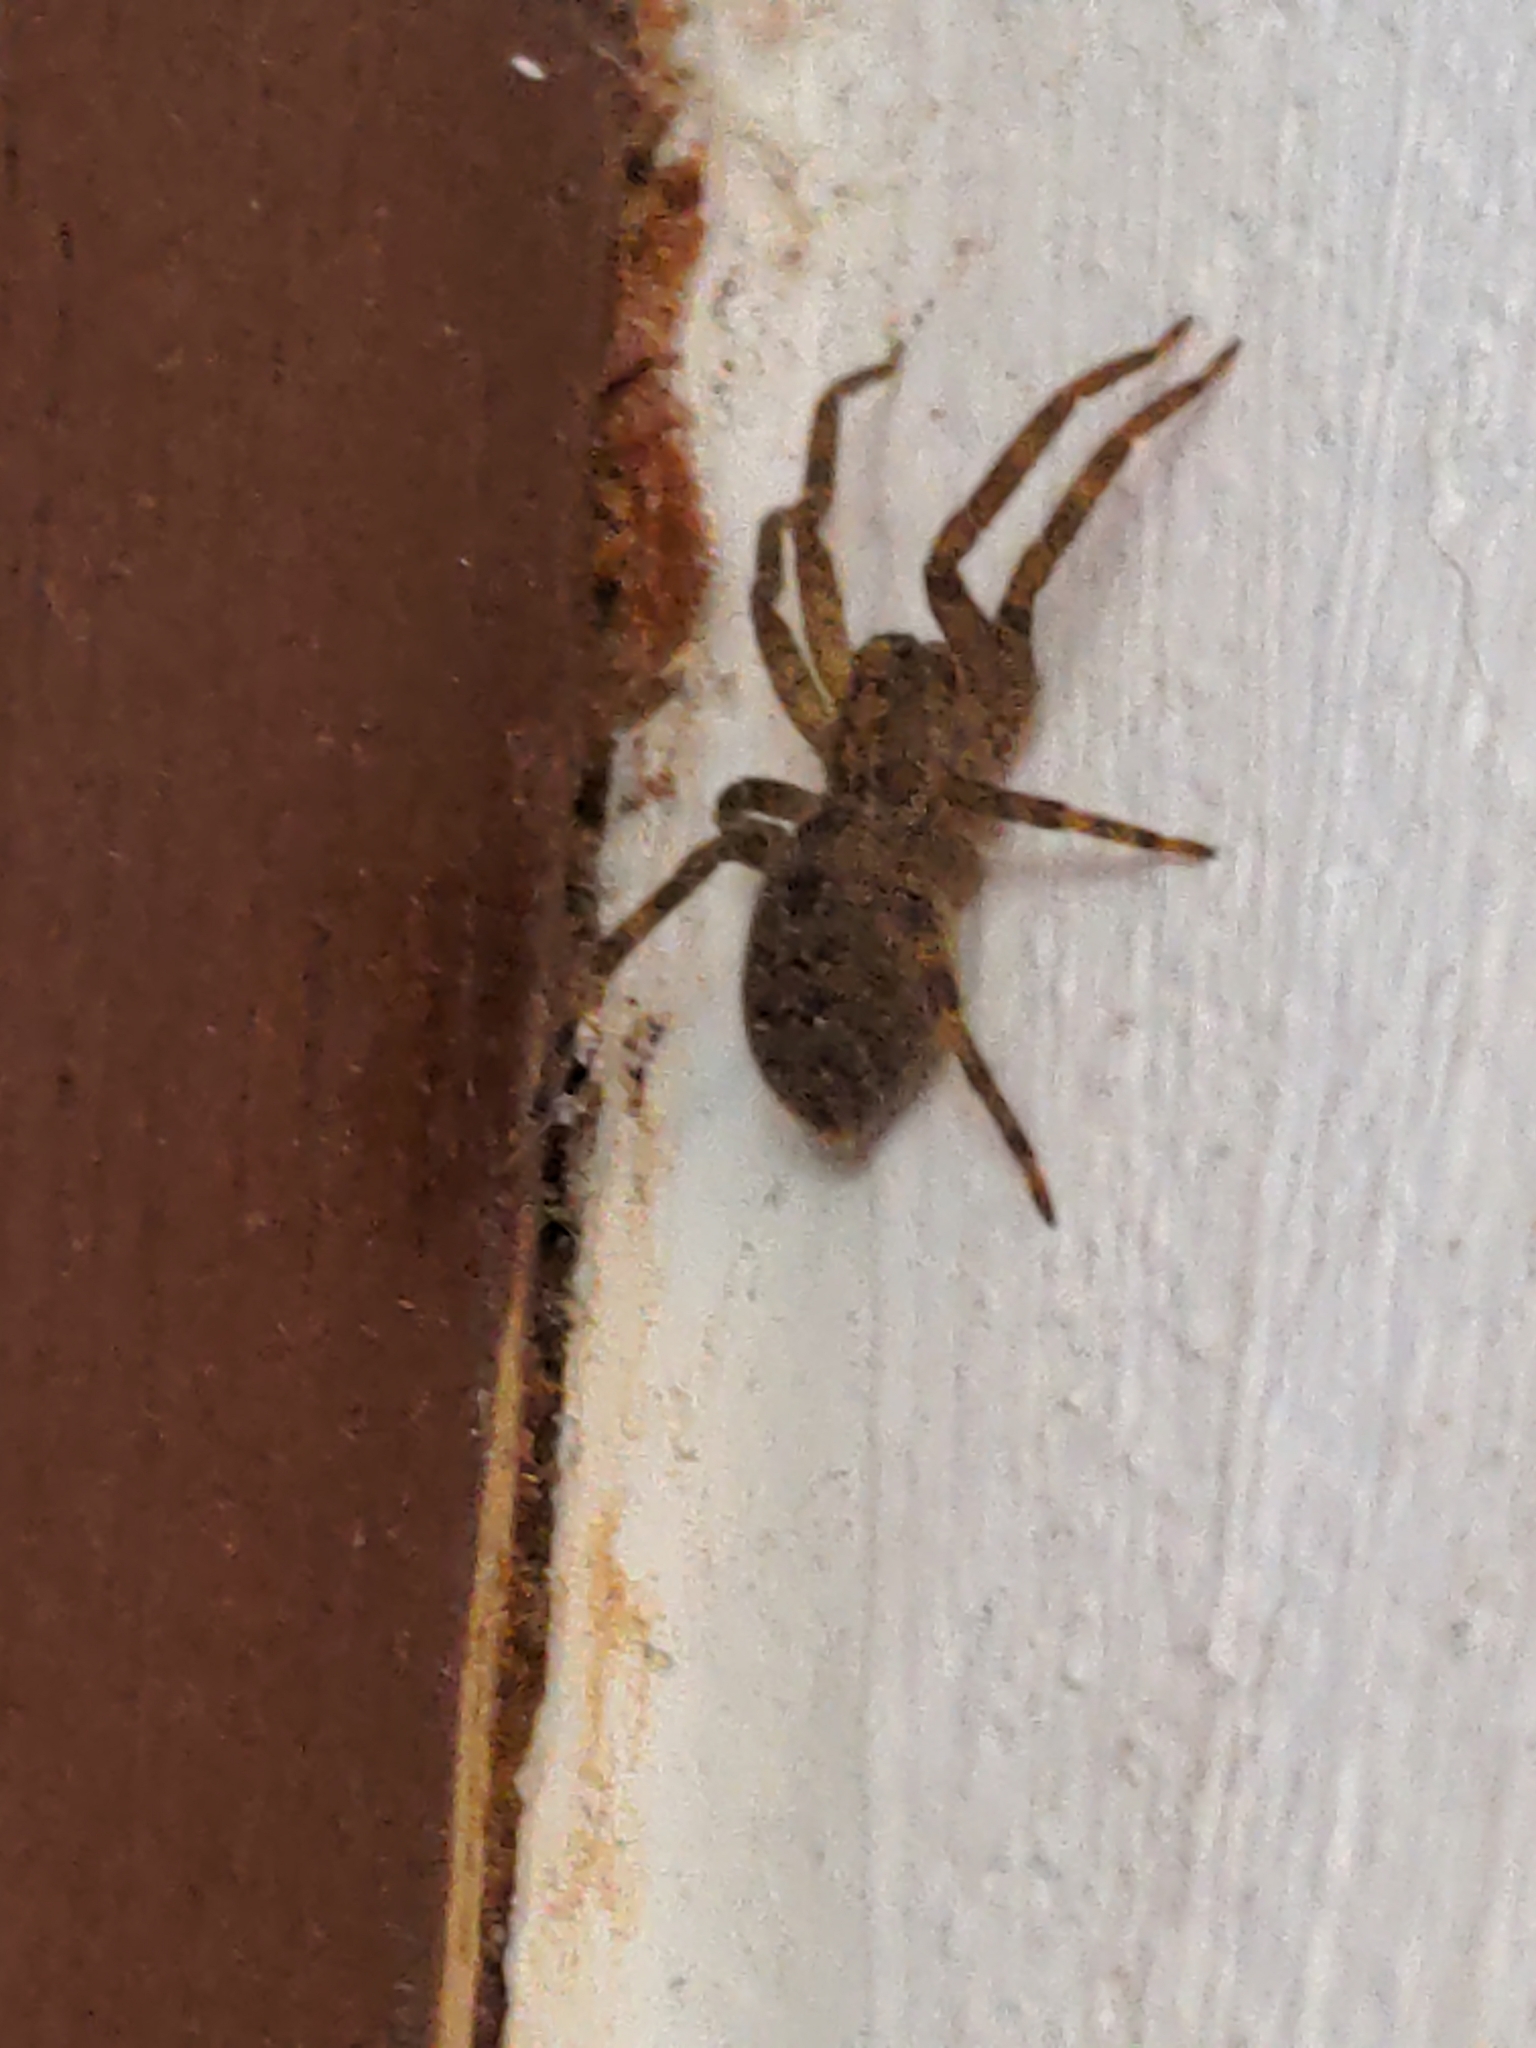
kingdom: Animalia
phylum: Arthropoda
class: Arachnida
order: Araneae
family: Zoropsidae
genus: Zoropsis
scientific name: Zoropsis spinimana
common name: Zoropsid spider
